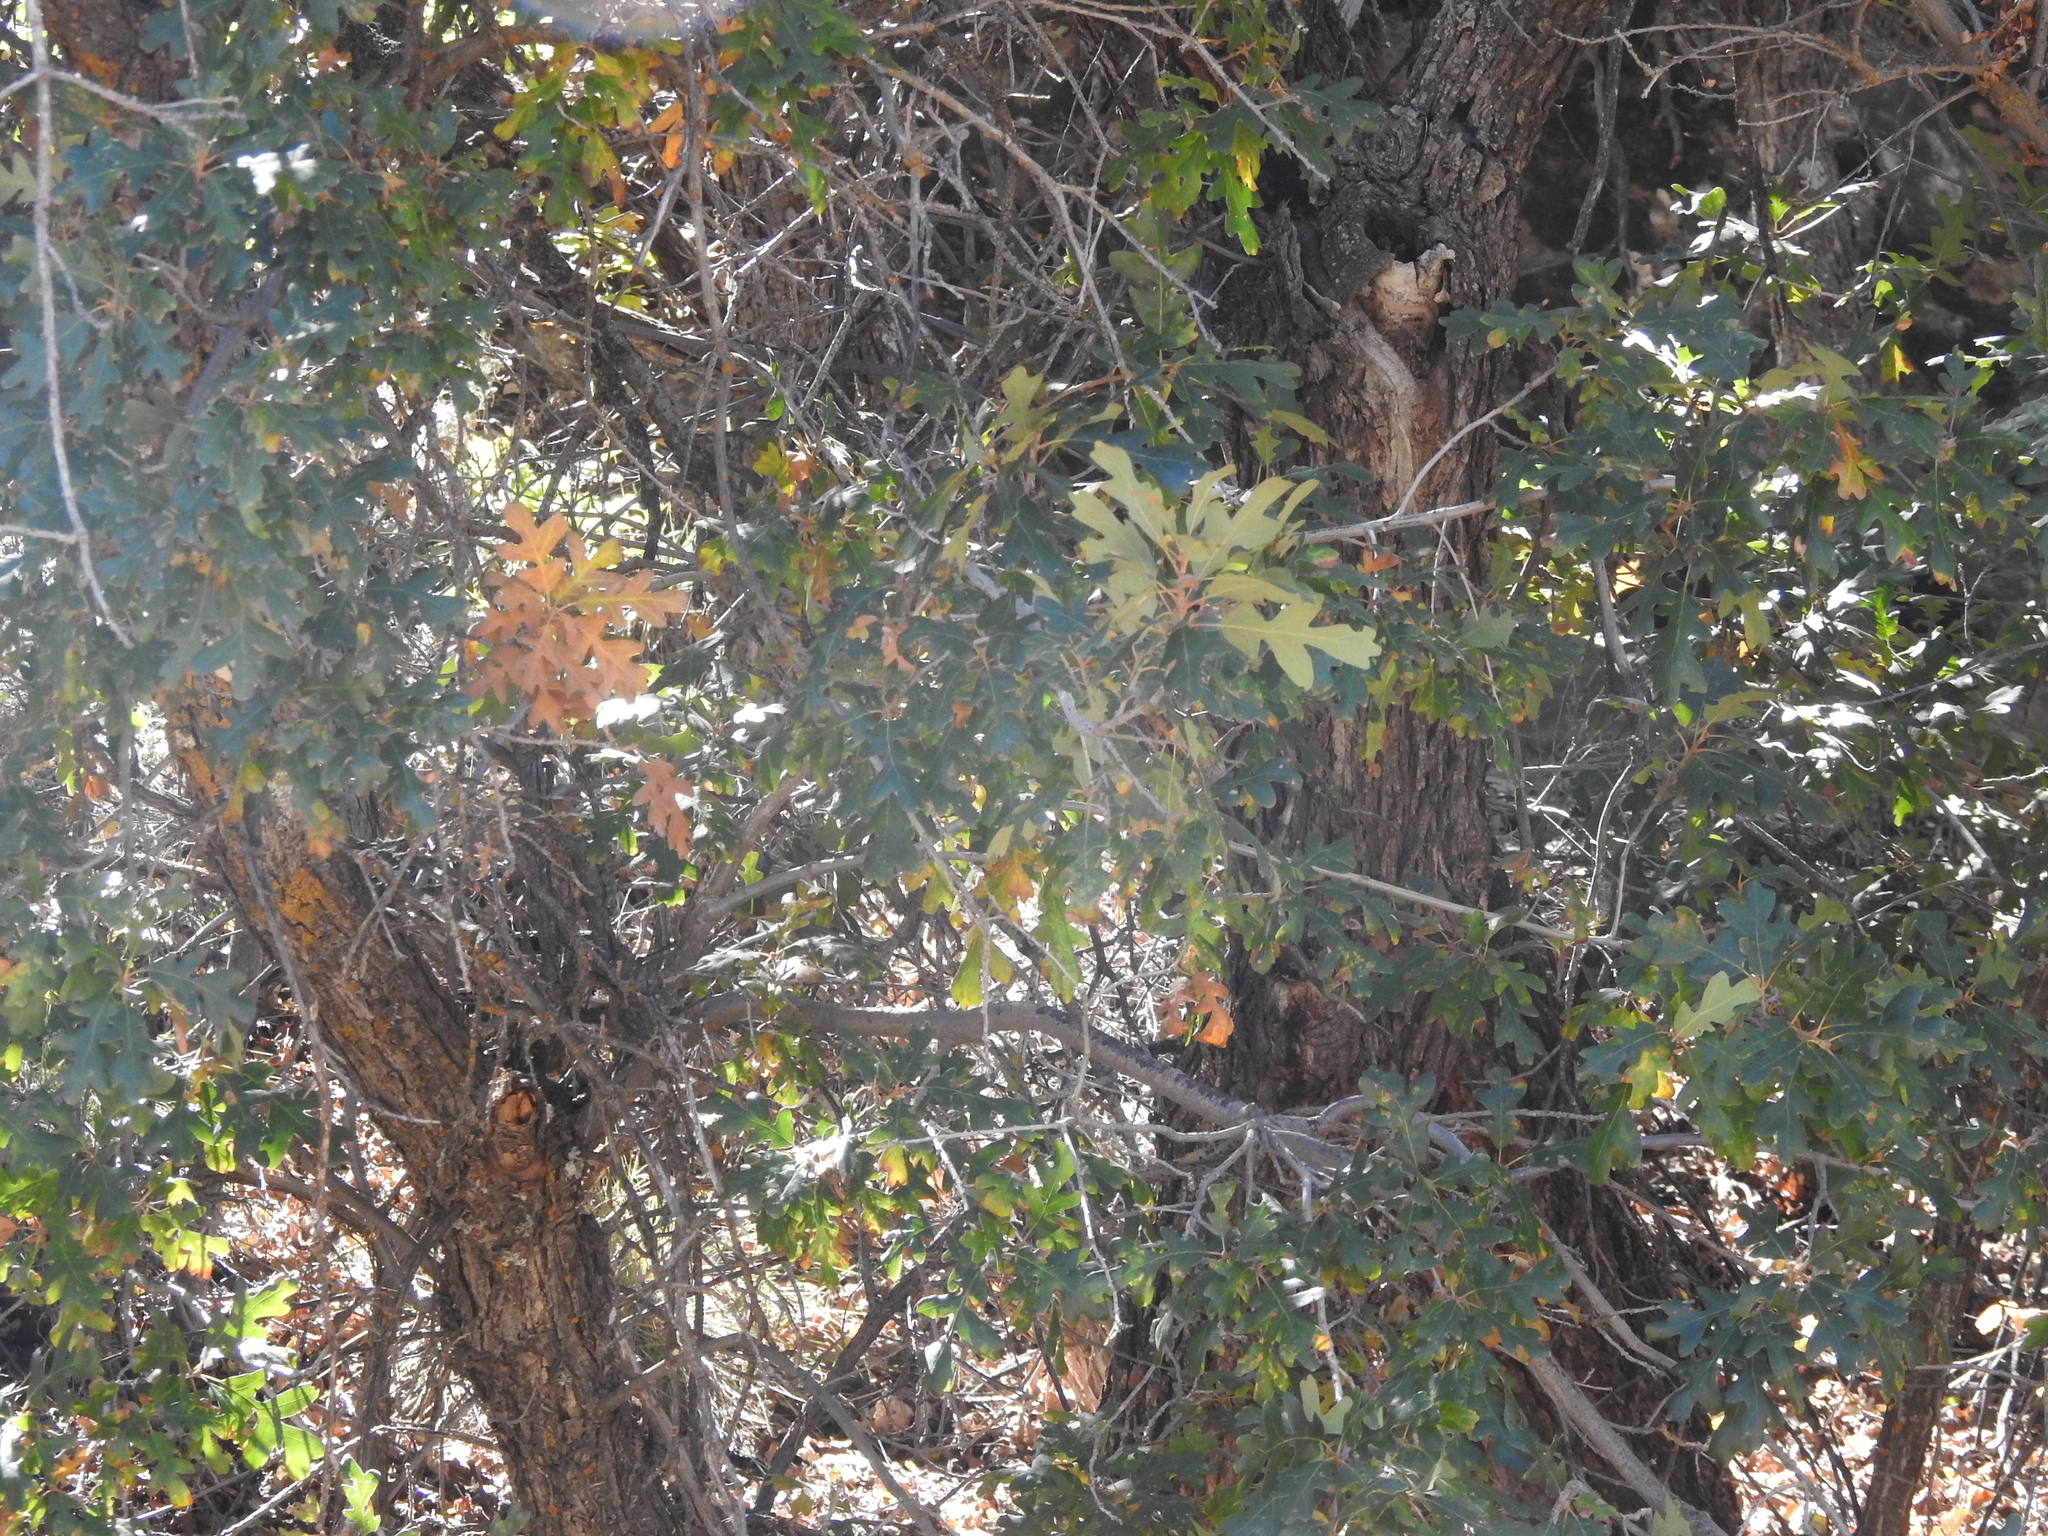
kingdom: Plantae
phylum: Tracheophyta
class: Magnoliopsida
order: Fagales
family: Fagaceae
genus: Quercus
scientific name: Quercus gambelii
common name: Gambel oak
